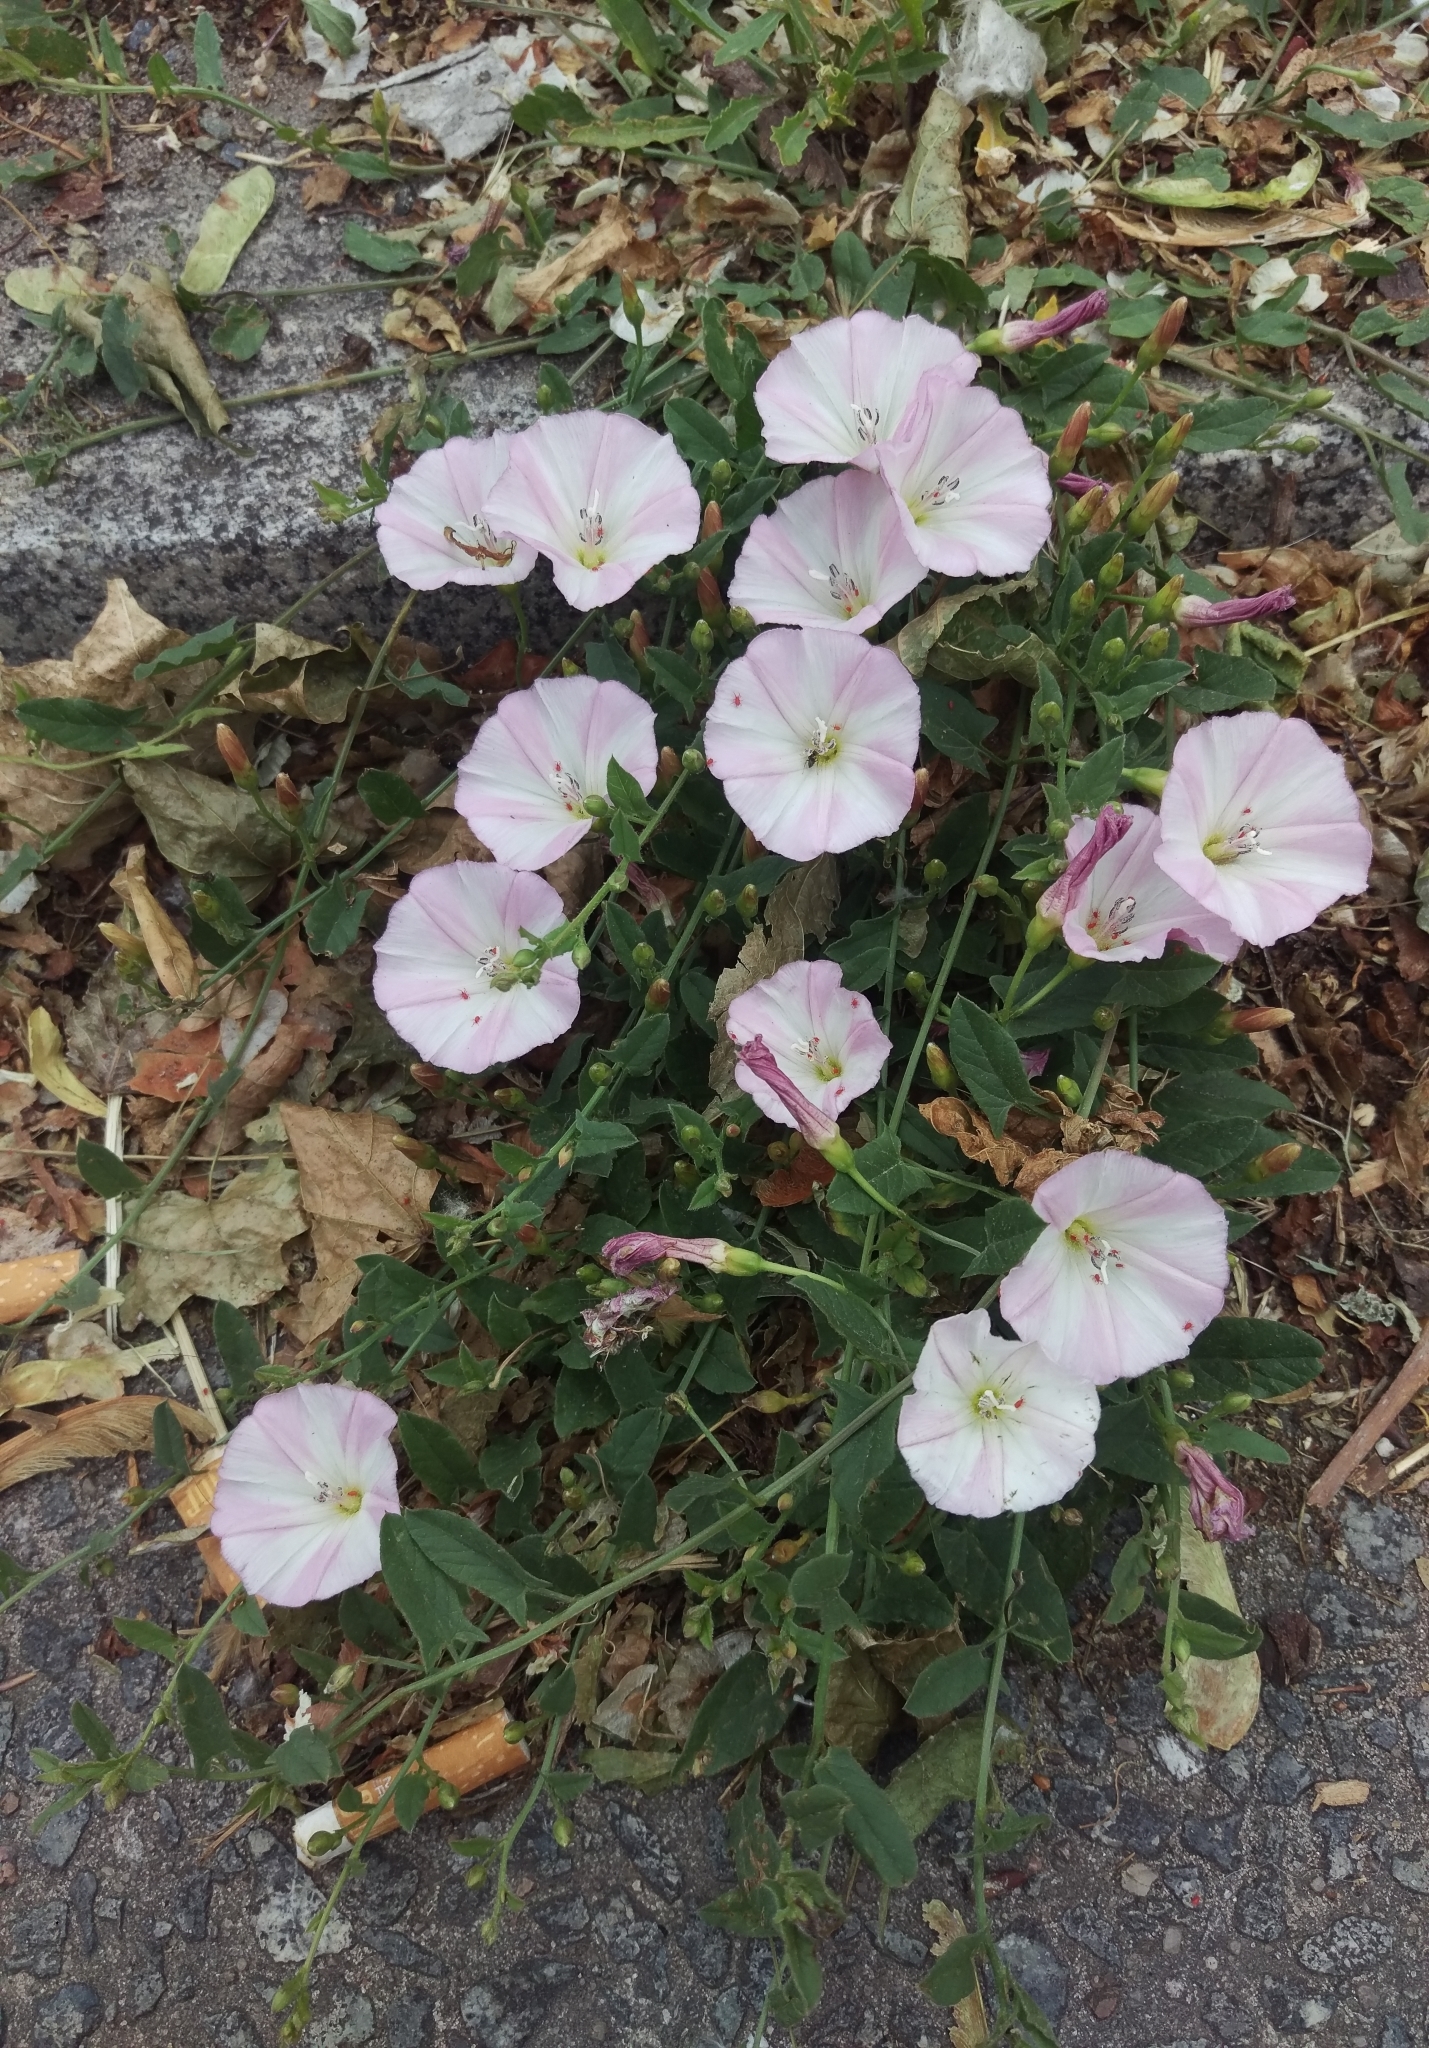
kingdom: Plantae
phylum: Tracheophyta
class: Magnoliopsida
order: Solanales
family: Convolvulaceae
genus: Convolvulus
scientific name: Convolvulus arvensis
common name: Field bindweed
